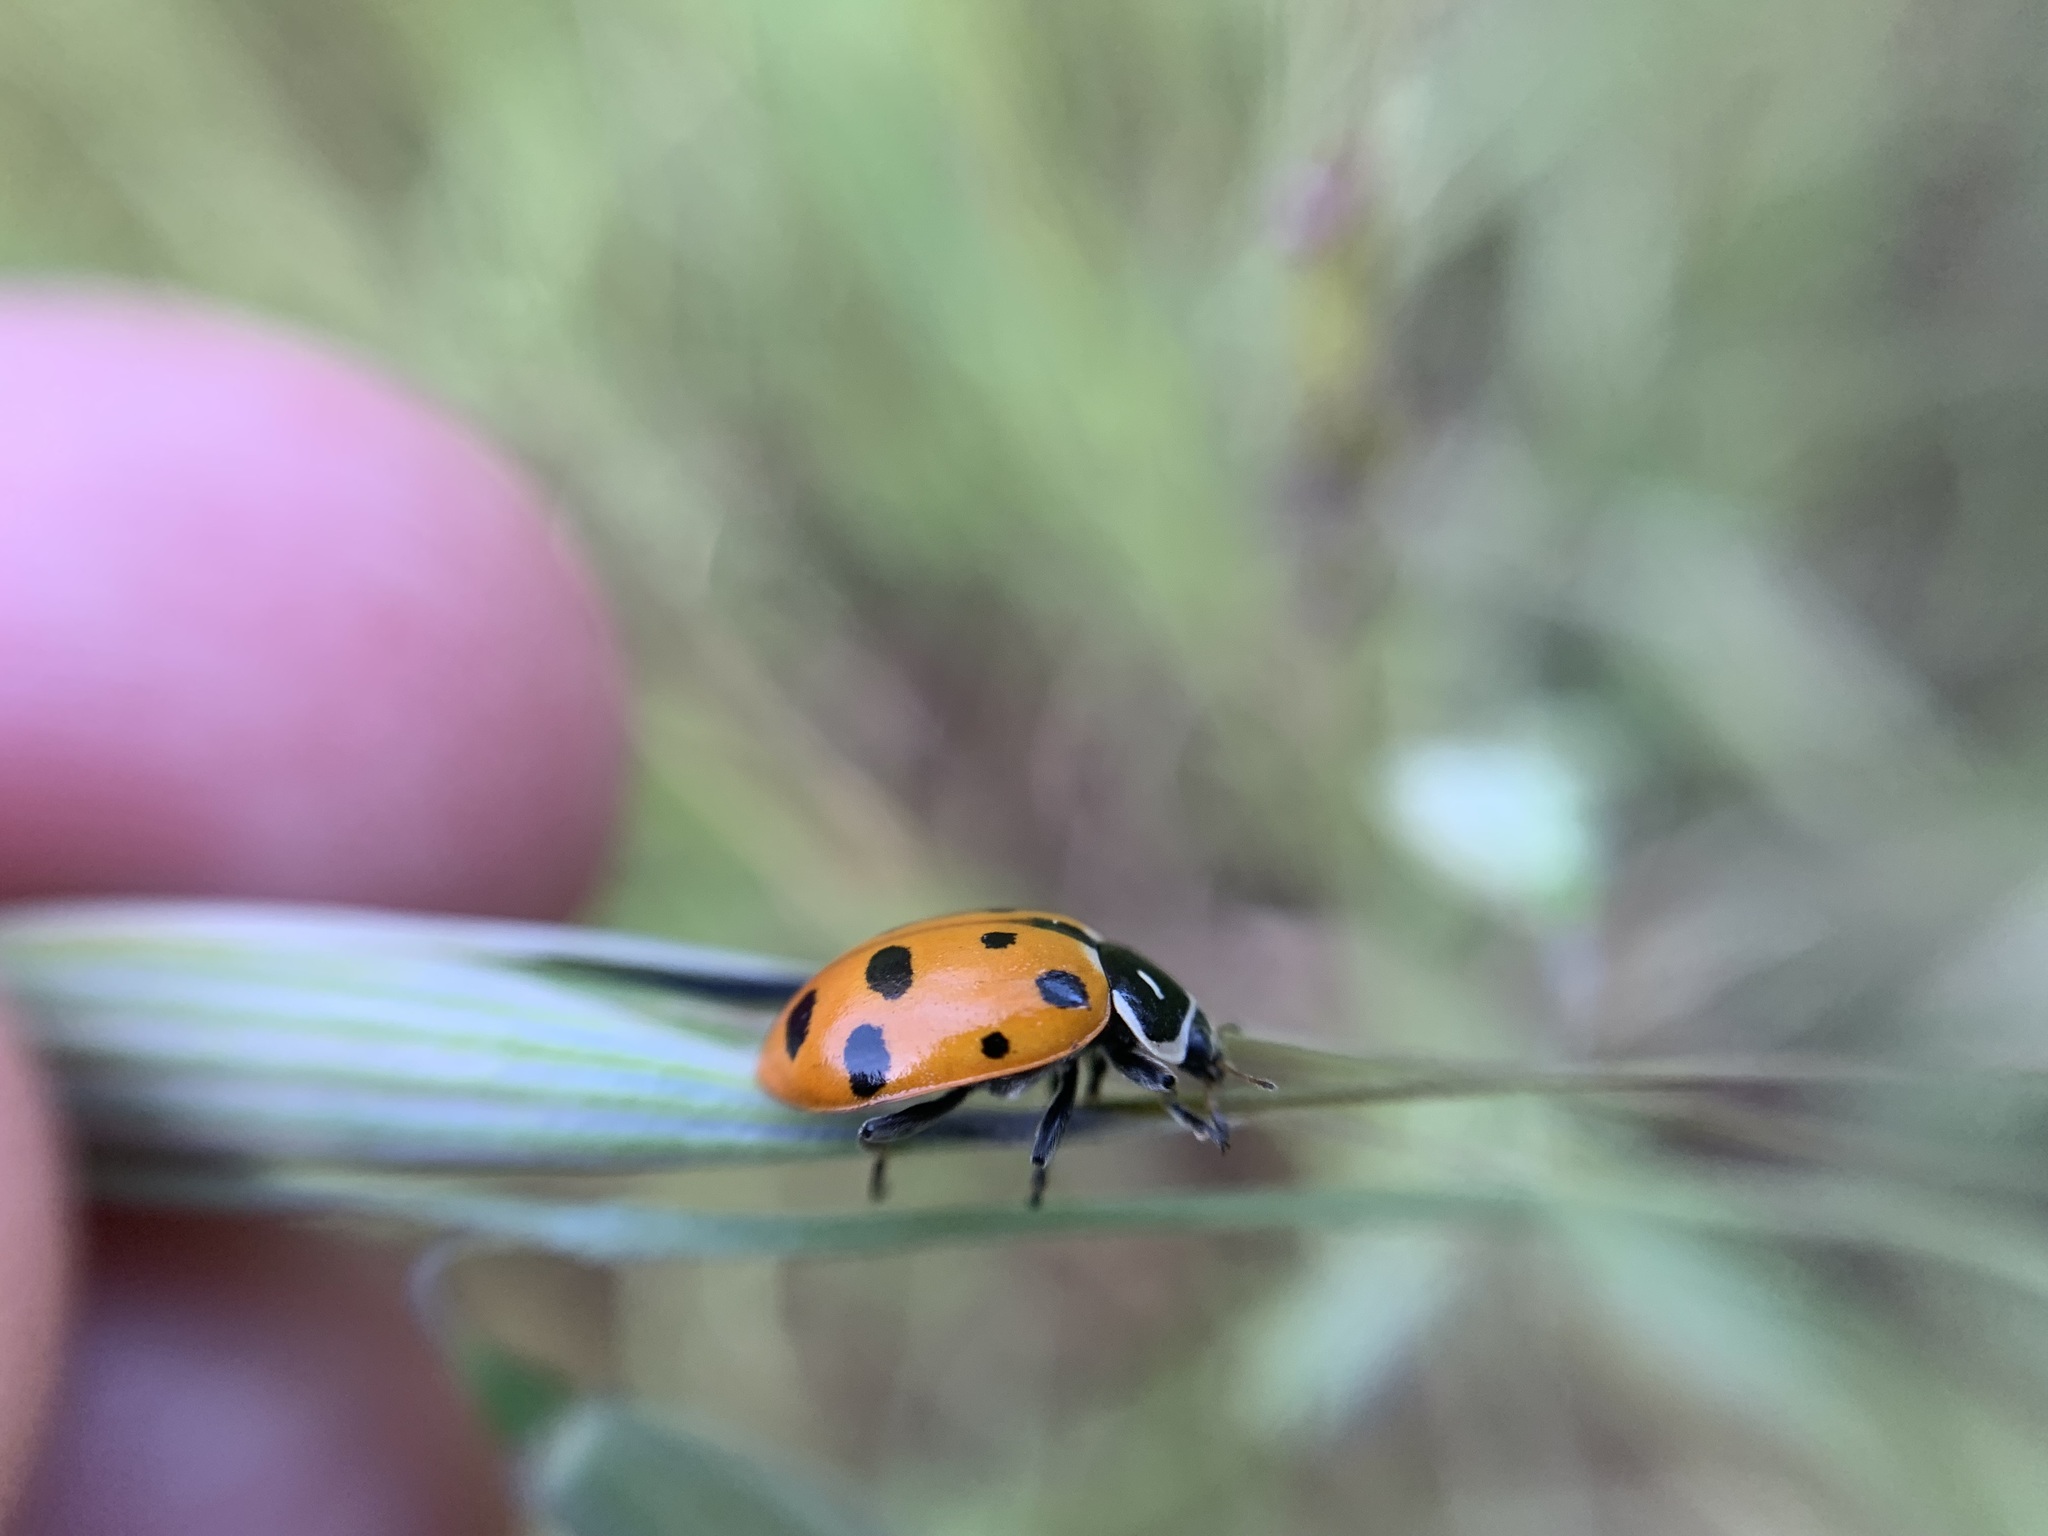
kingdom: Animalia
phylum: Arthropoda
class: Insecta
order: Coleoptera
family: Coccinellidae
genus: Hippodamia
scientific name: Hippodamia convergens
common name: Convergent lady beetle
